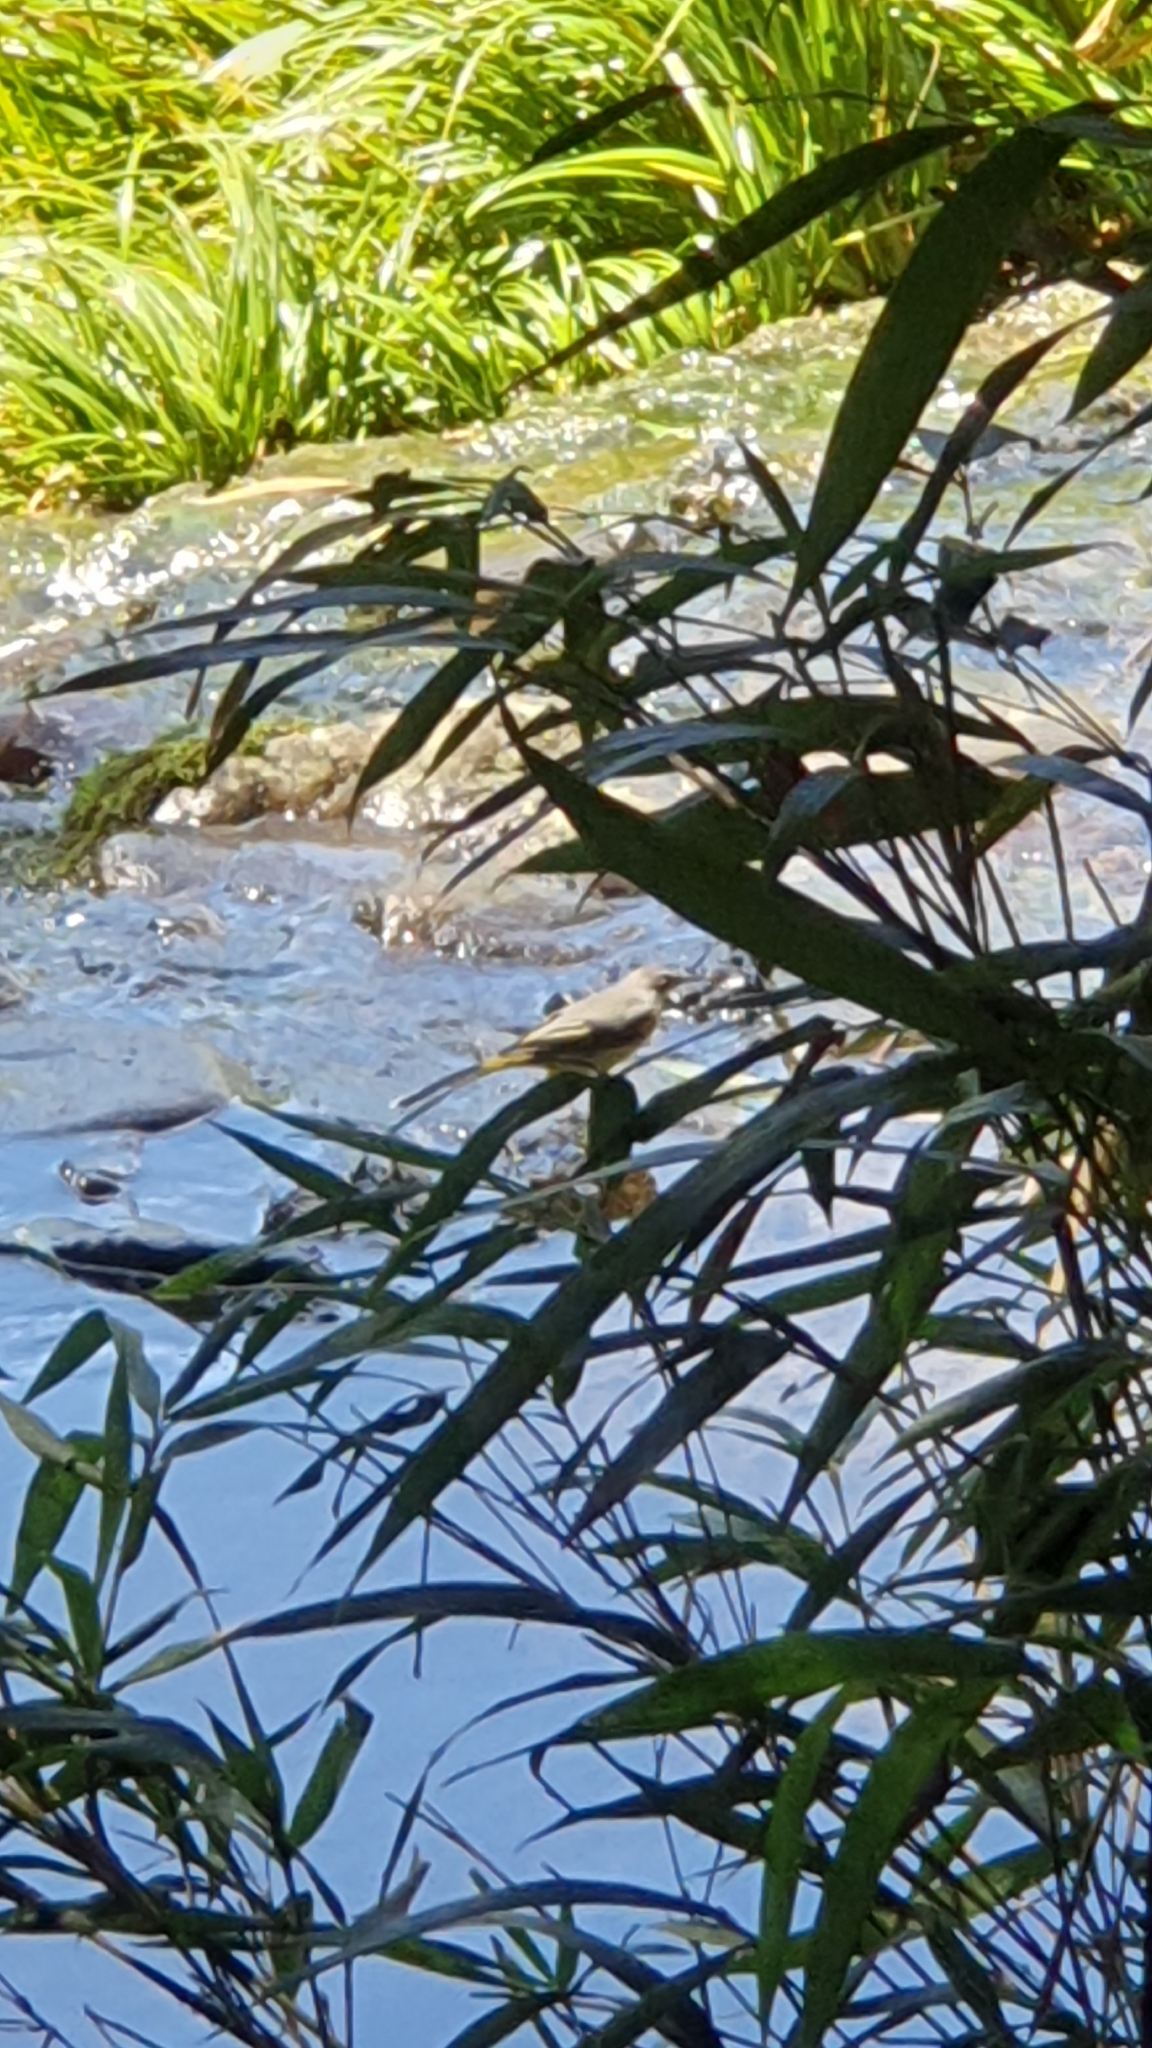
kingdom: Animalia
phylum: Chordata
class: Aves
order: Passeriformes
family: Motacillidae
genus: Motacilla
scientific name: Motacilla cinerea
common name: Grey wagtail
